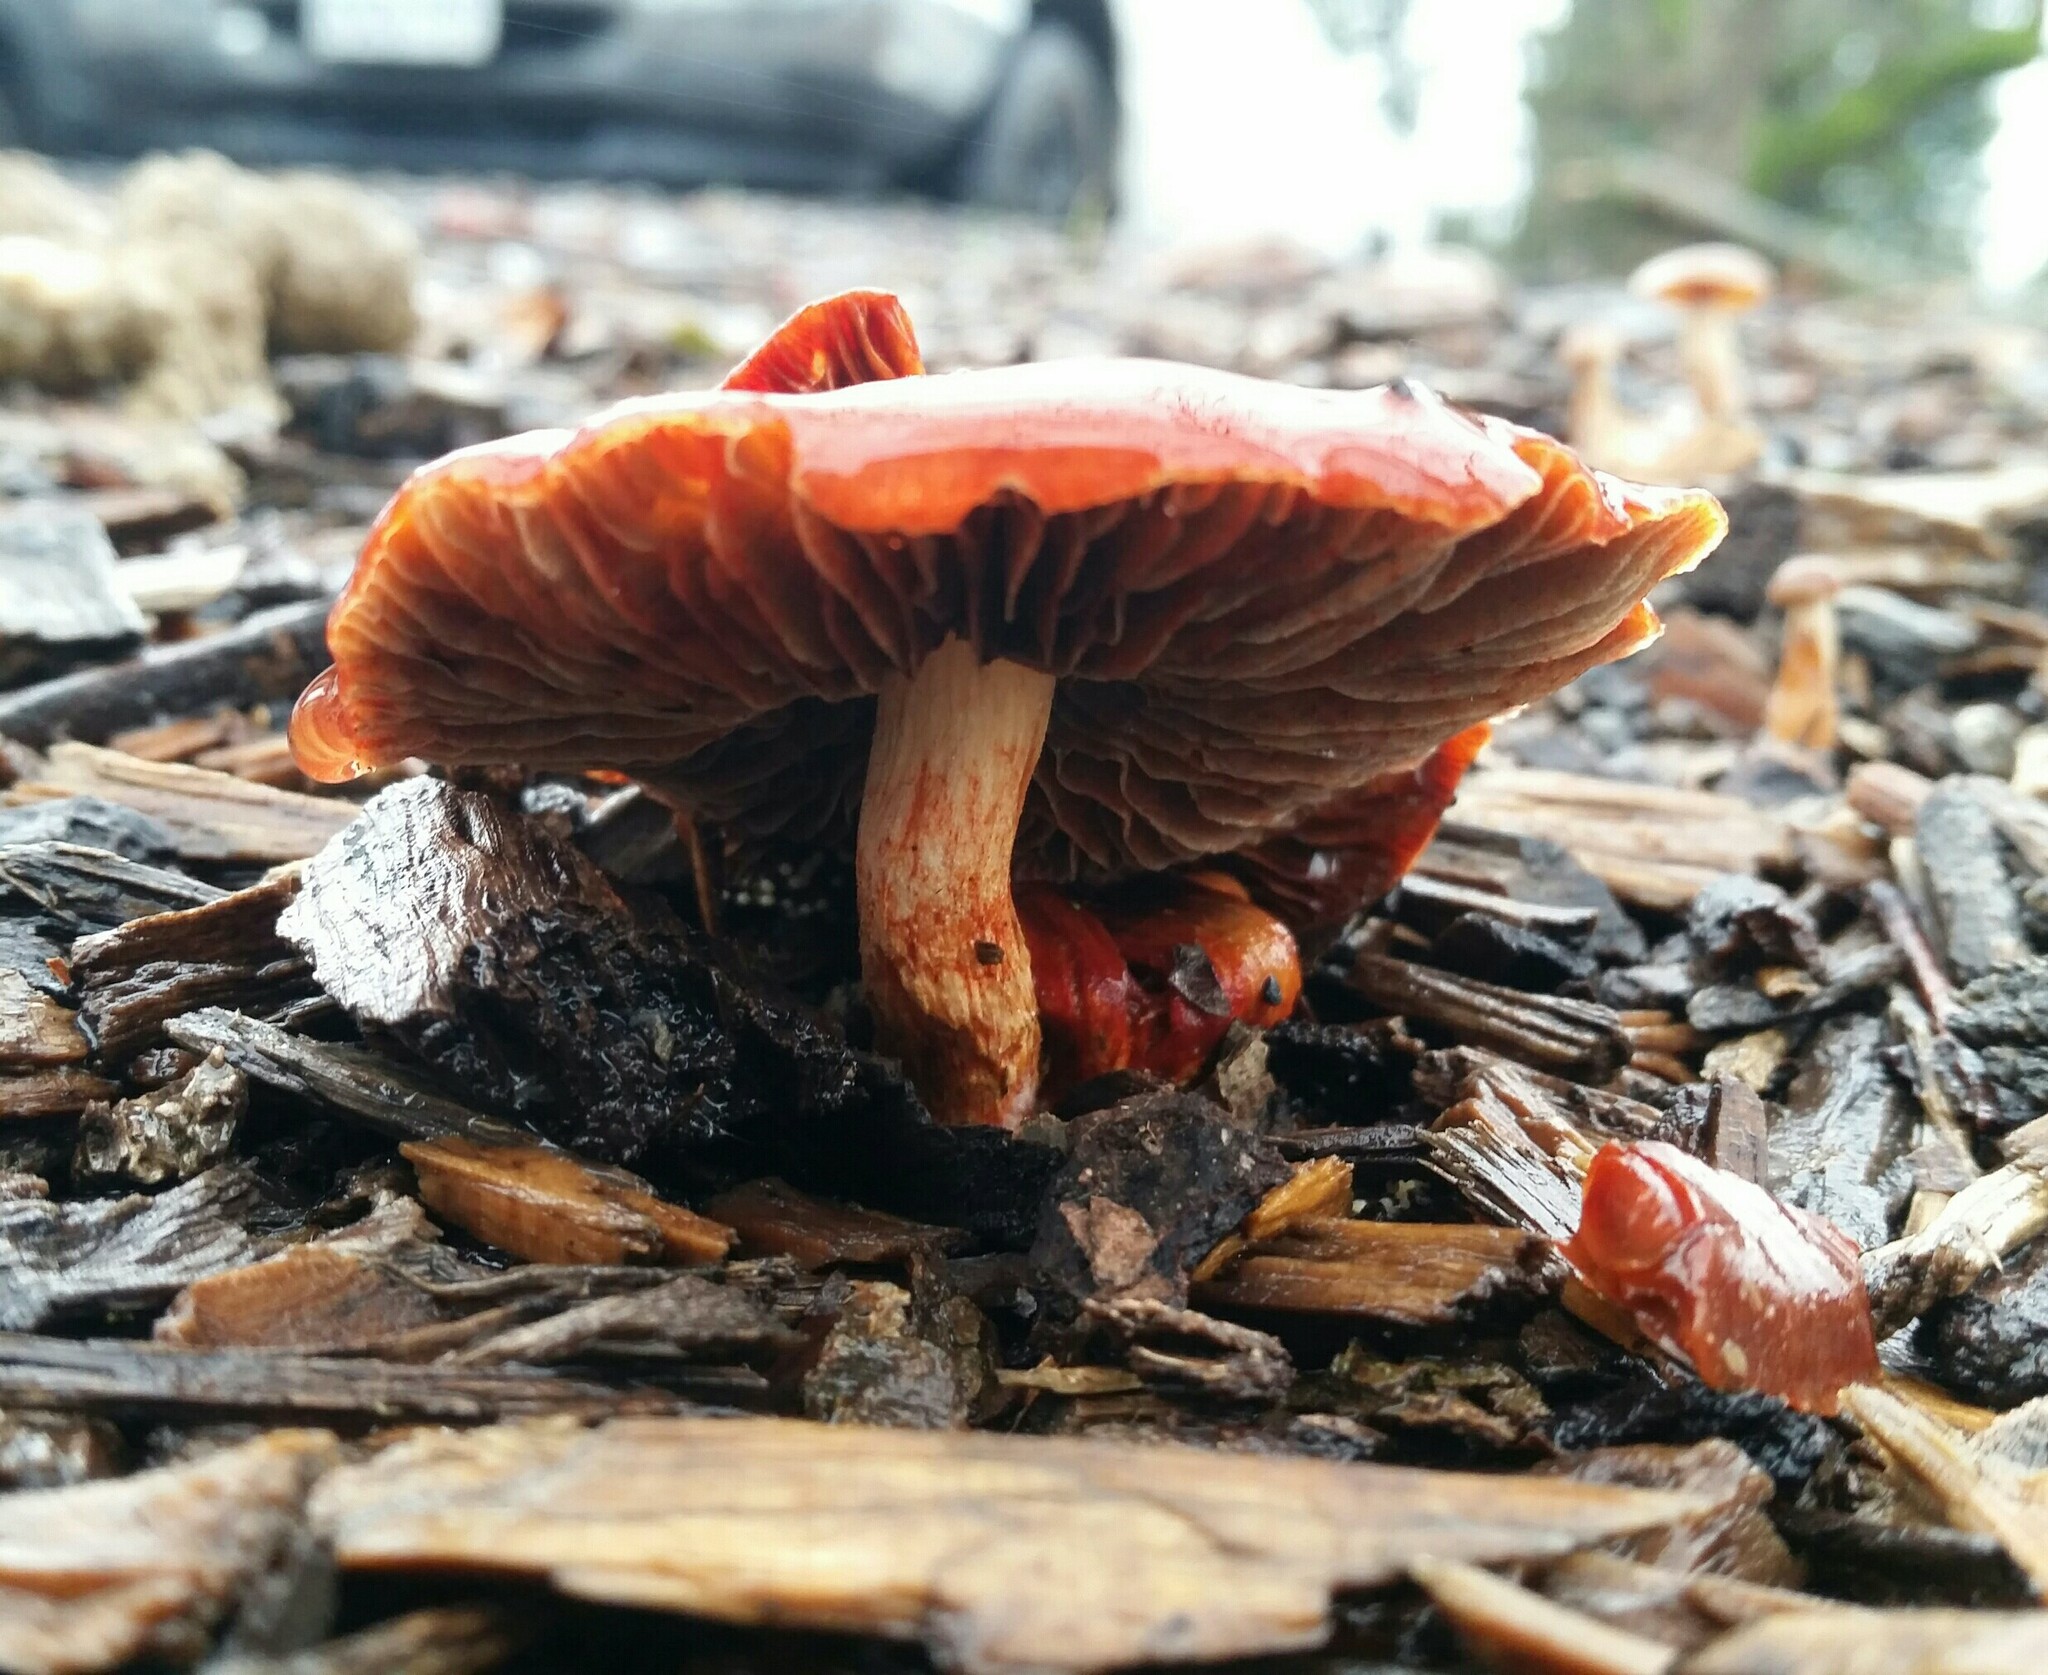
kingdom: Fungi
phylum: Basidiomycota
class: Agaricomycetes
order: Agaricales
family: Strophariaceae
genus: Leratiomyces
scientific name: Leratiomyces ceres
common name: Redlead roundhead
